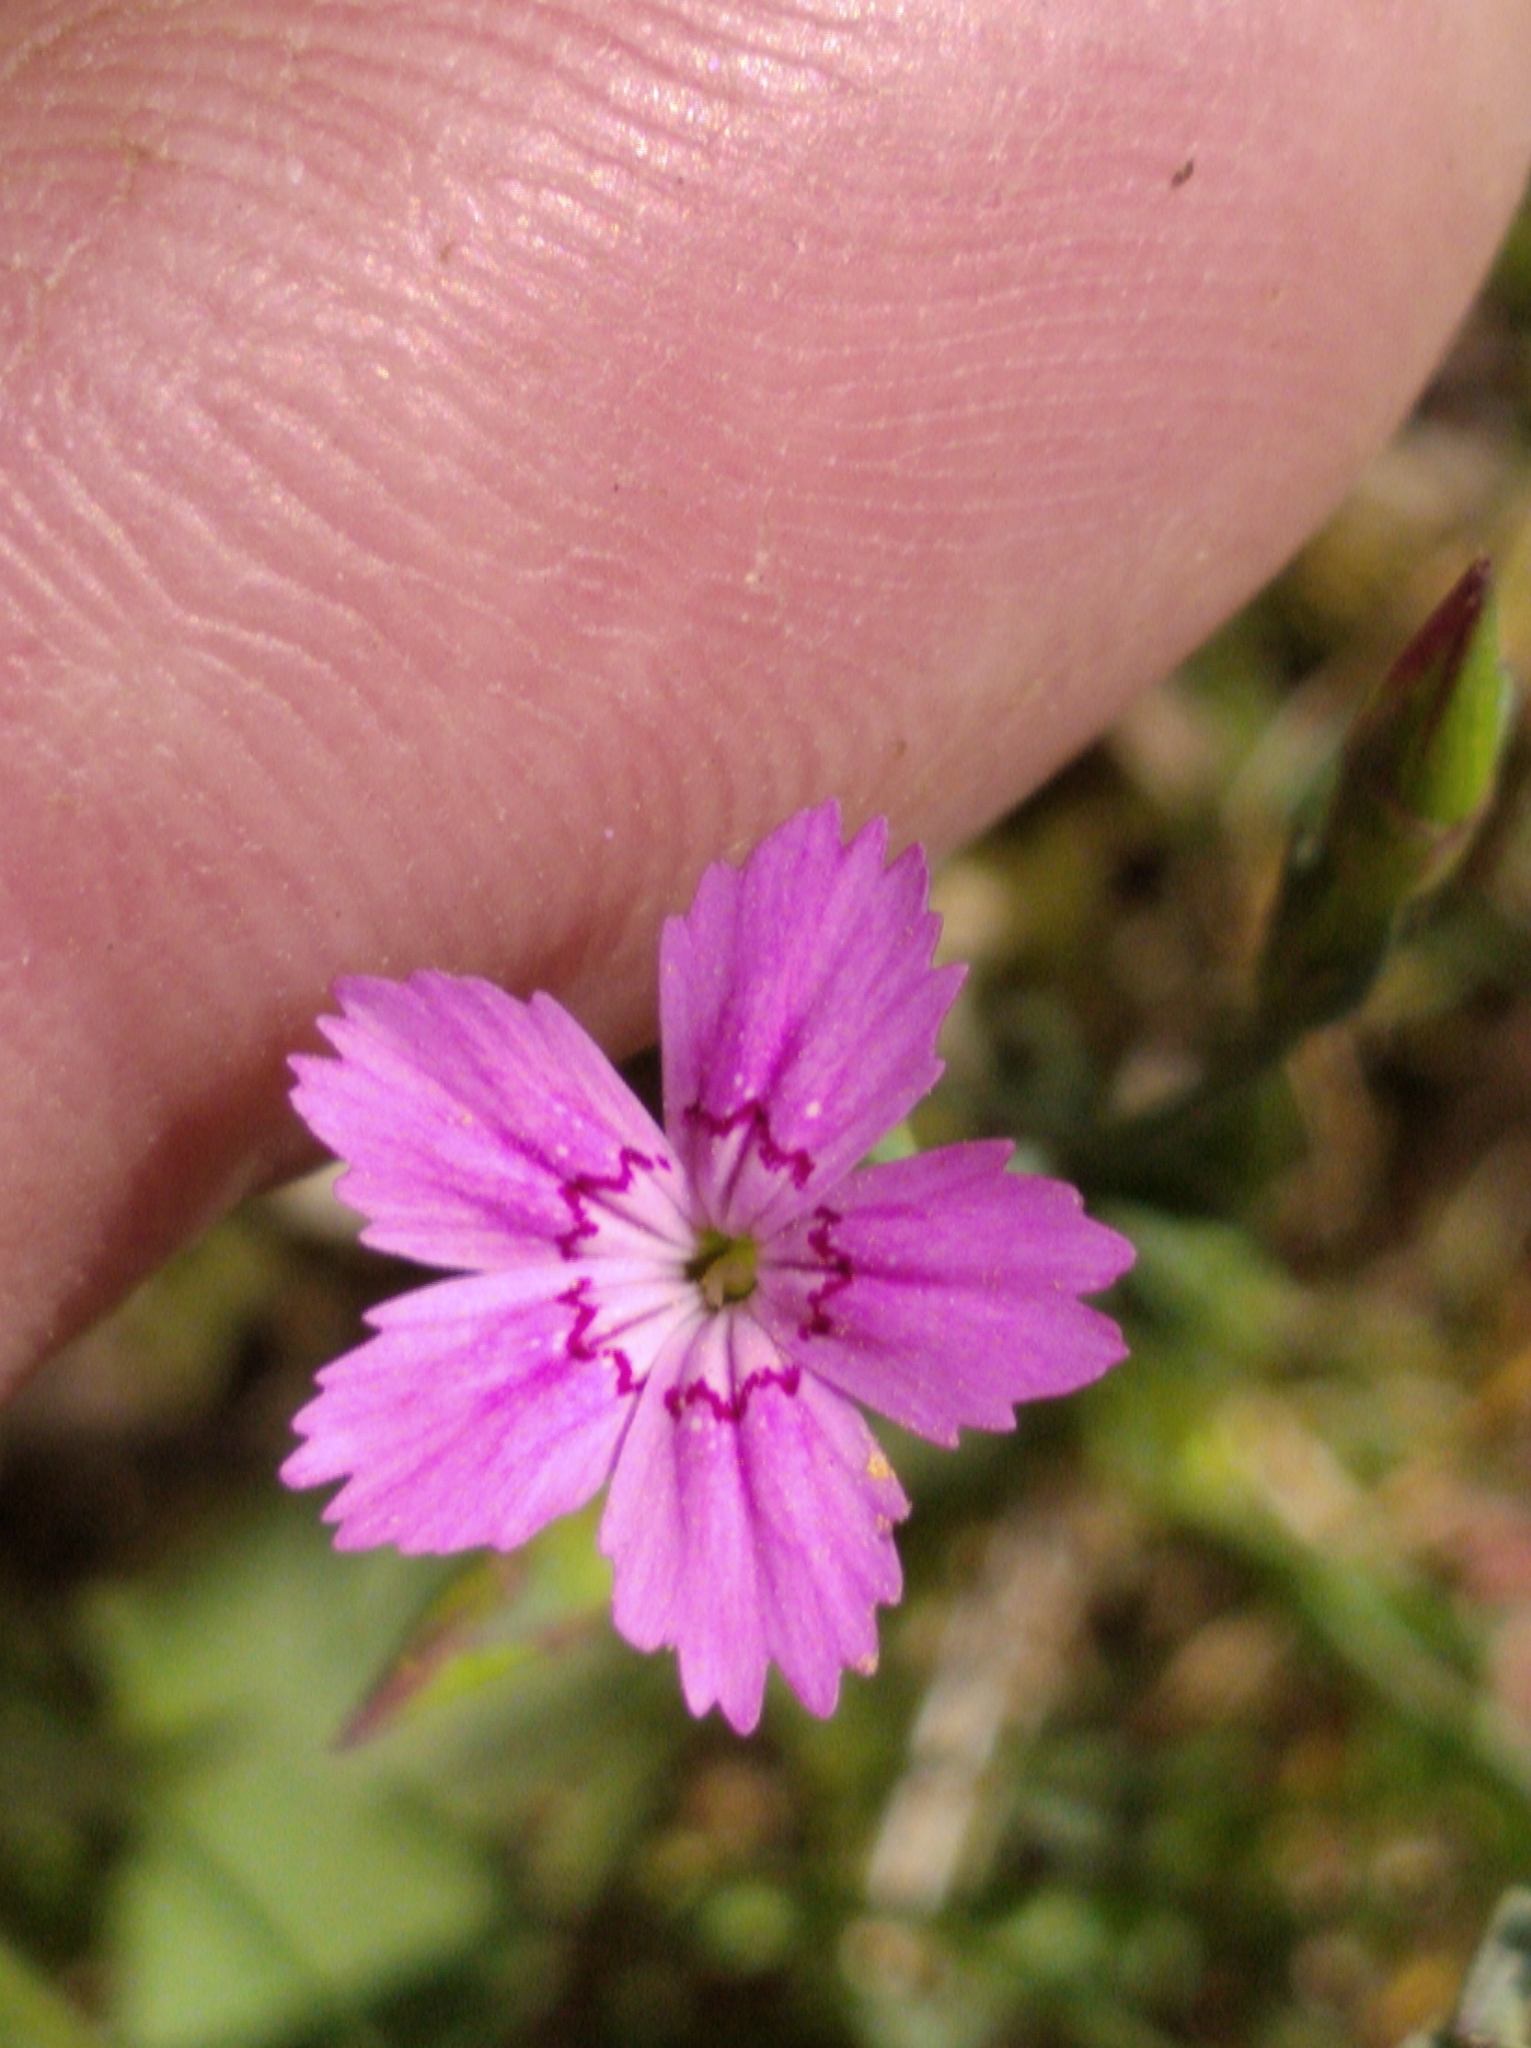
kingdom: Plantae
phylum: Tracheophyta
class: Magnoliopsida
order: Caryophyllales
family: Caryophyllaceae
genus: Dianthus
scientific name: Dianthus deltoides
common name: Maiden pink
